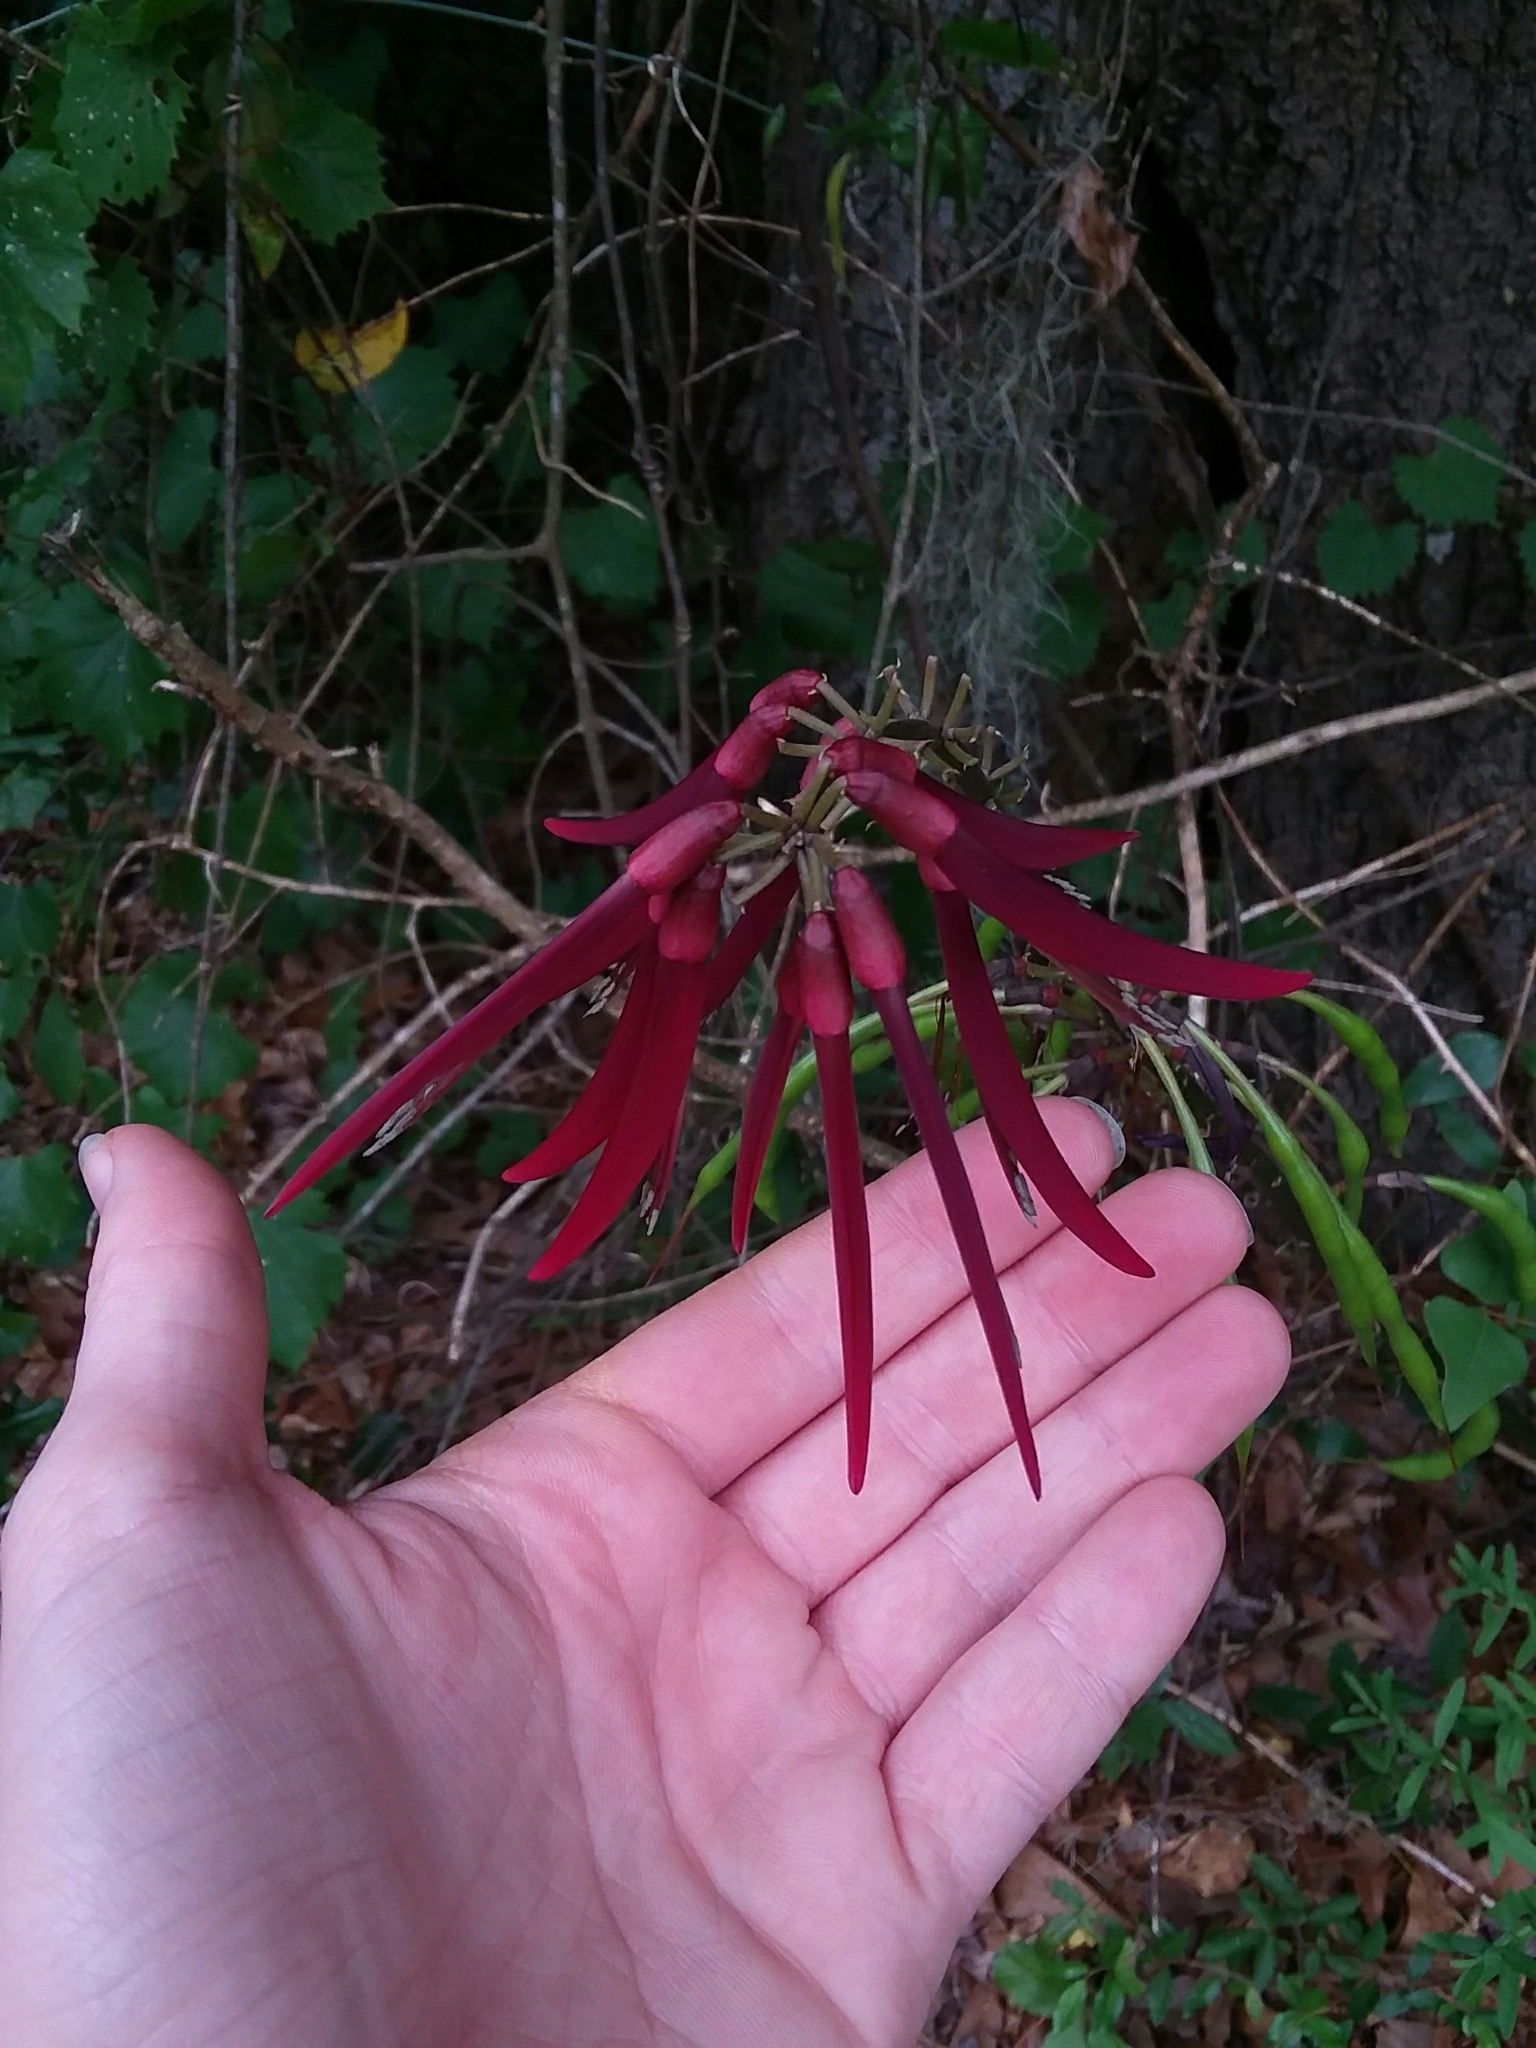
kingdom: Plantae
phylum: Tracheophyta
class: Magnoliopsida
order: Fabales
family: Fabaceae
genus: Erythrina
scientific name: Erythrina herbacea
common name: Coral-bean
